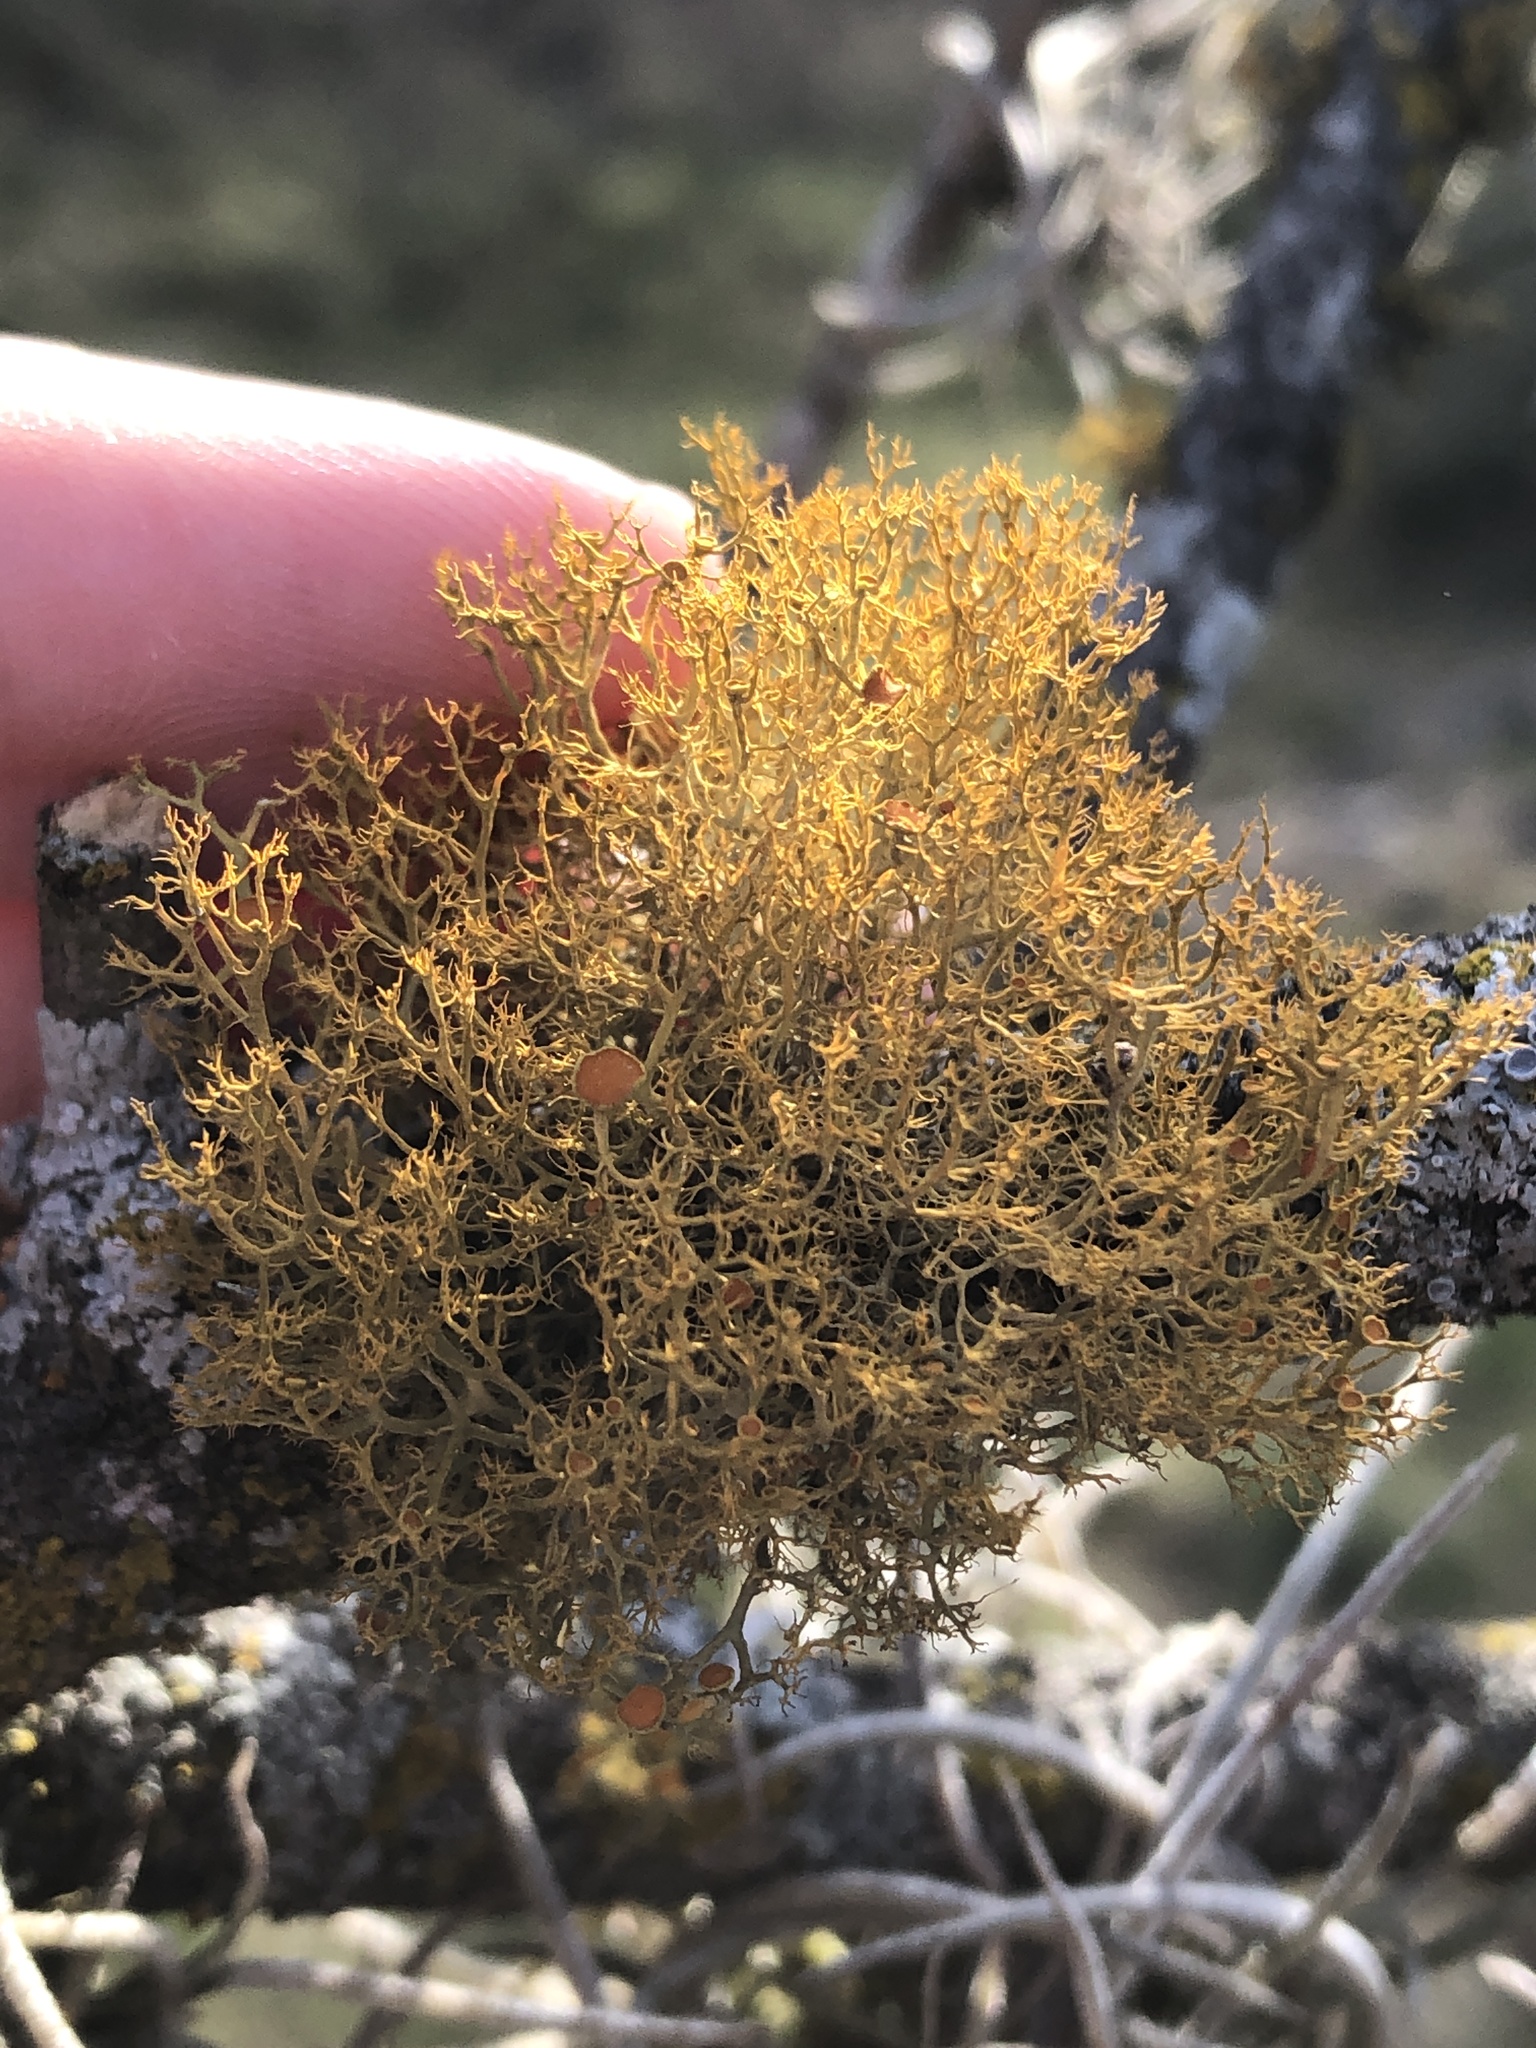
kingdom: Fungi
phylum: Ascomycota
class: Lecanoromycetes
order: Teloschistales
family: Teloschistaceae
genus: Teloschistes
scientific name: Teloschistes exilis
